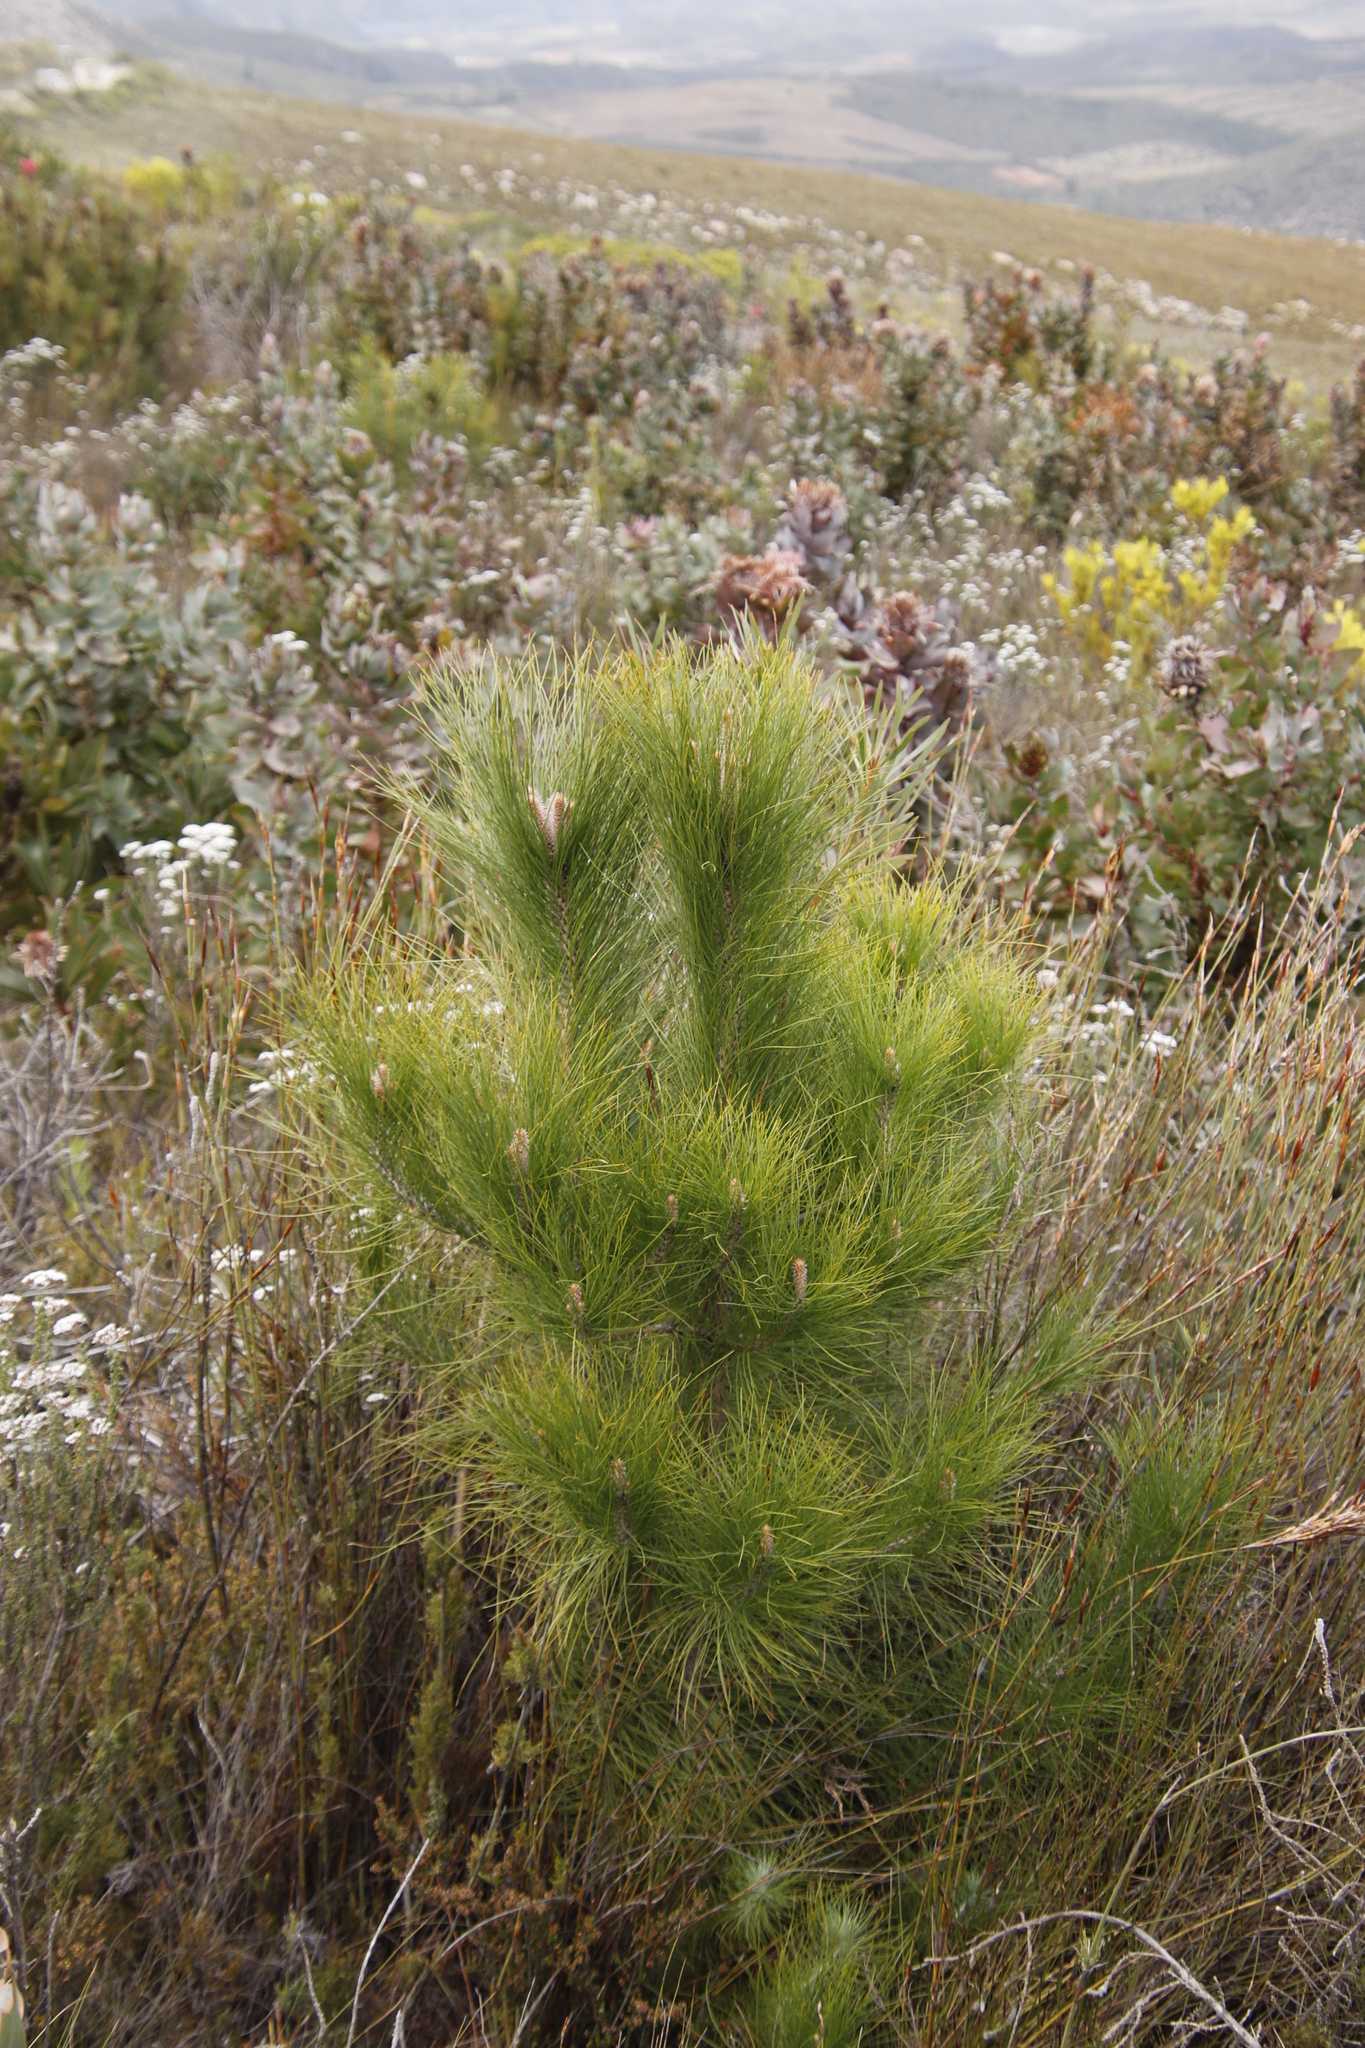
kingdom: Plantae
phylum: Tracheophyta
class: Pinopsida
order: Pinales
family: Pinaceae
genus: Pinus
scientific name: Pinus coulteri
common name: Coulter pine
